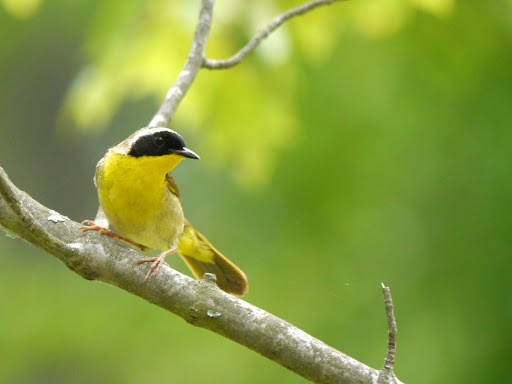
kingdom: Animalia
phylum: Chordata
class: Aves
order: Passeriformes
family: Parulidae
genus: Geothlypis
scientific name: Geothlypis trichas
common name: Common yellowthroat
